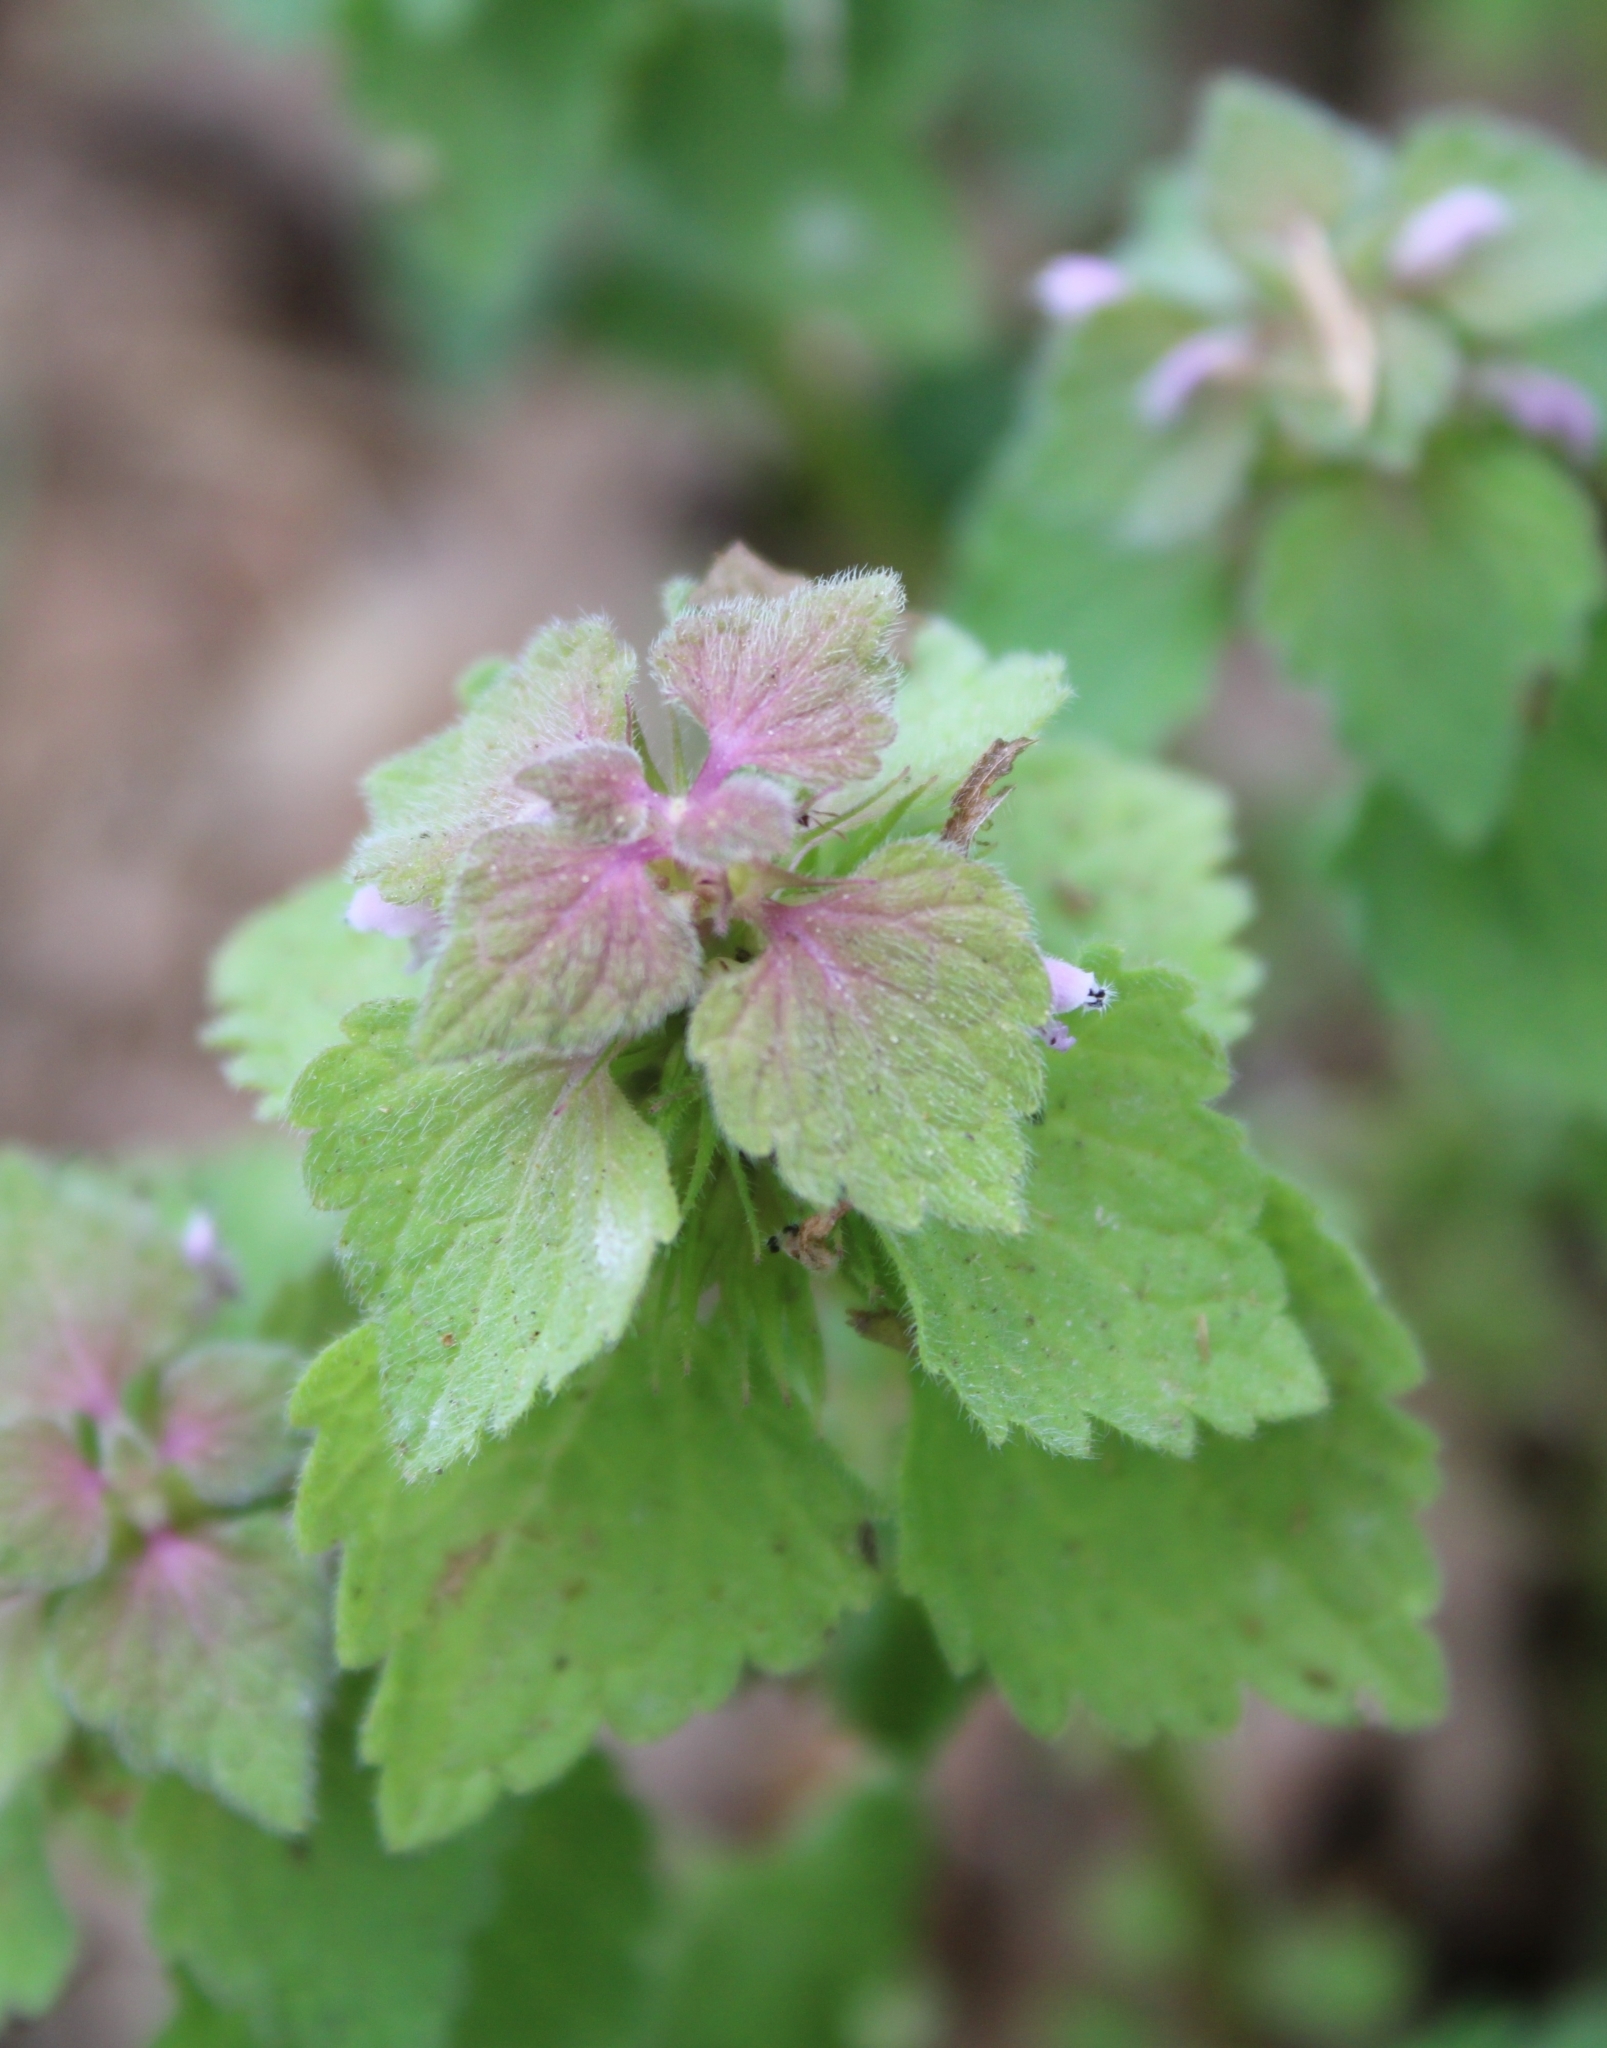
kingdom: Plantae
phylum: Tracheophyta
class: Magnoliopsida
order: Lamiales
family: Lamiaceae
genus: Lamium
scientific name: Lamium purpureum
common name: Red dead-nettle
